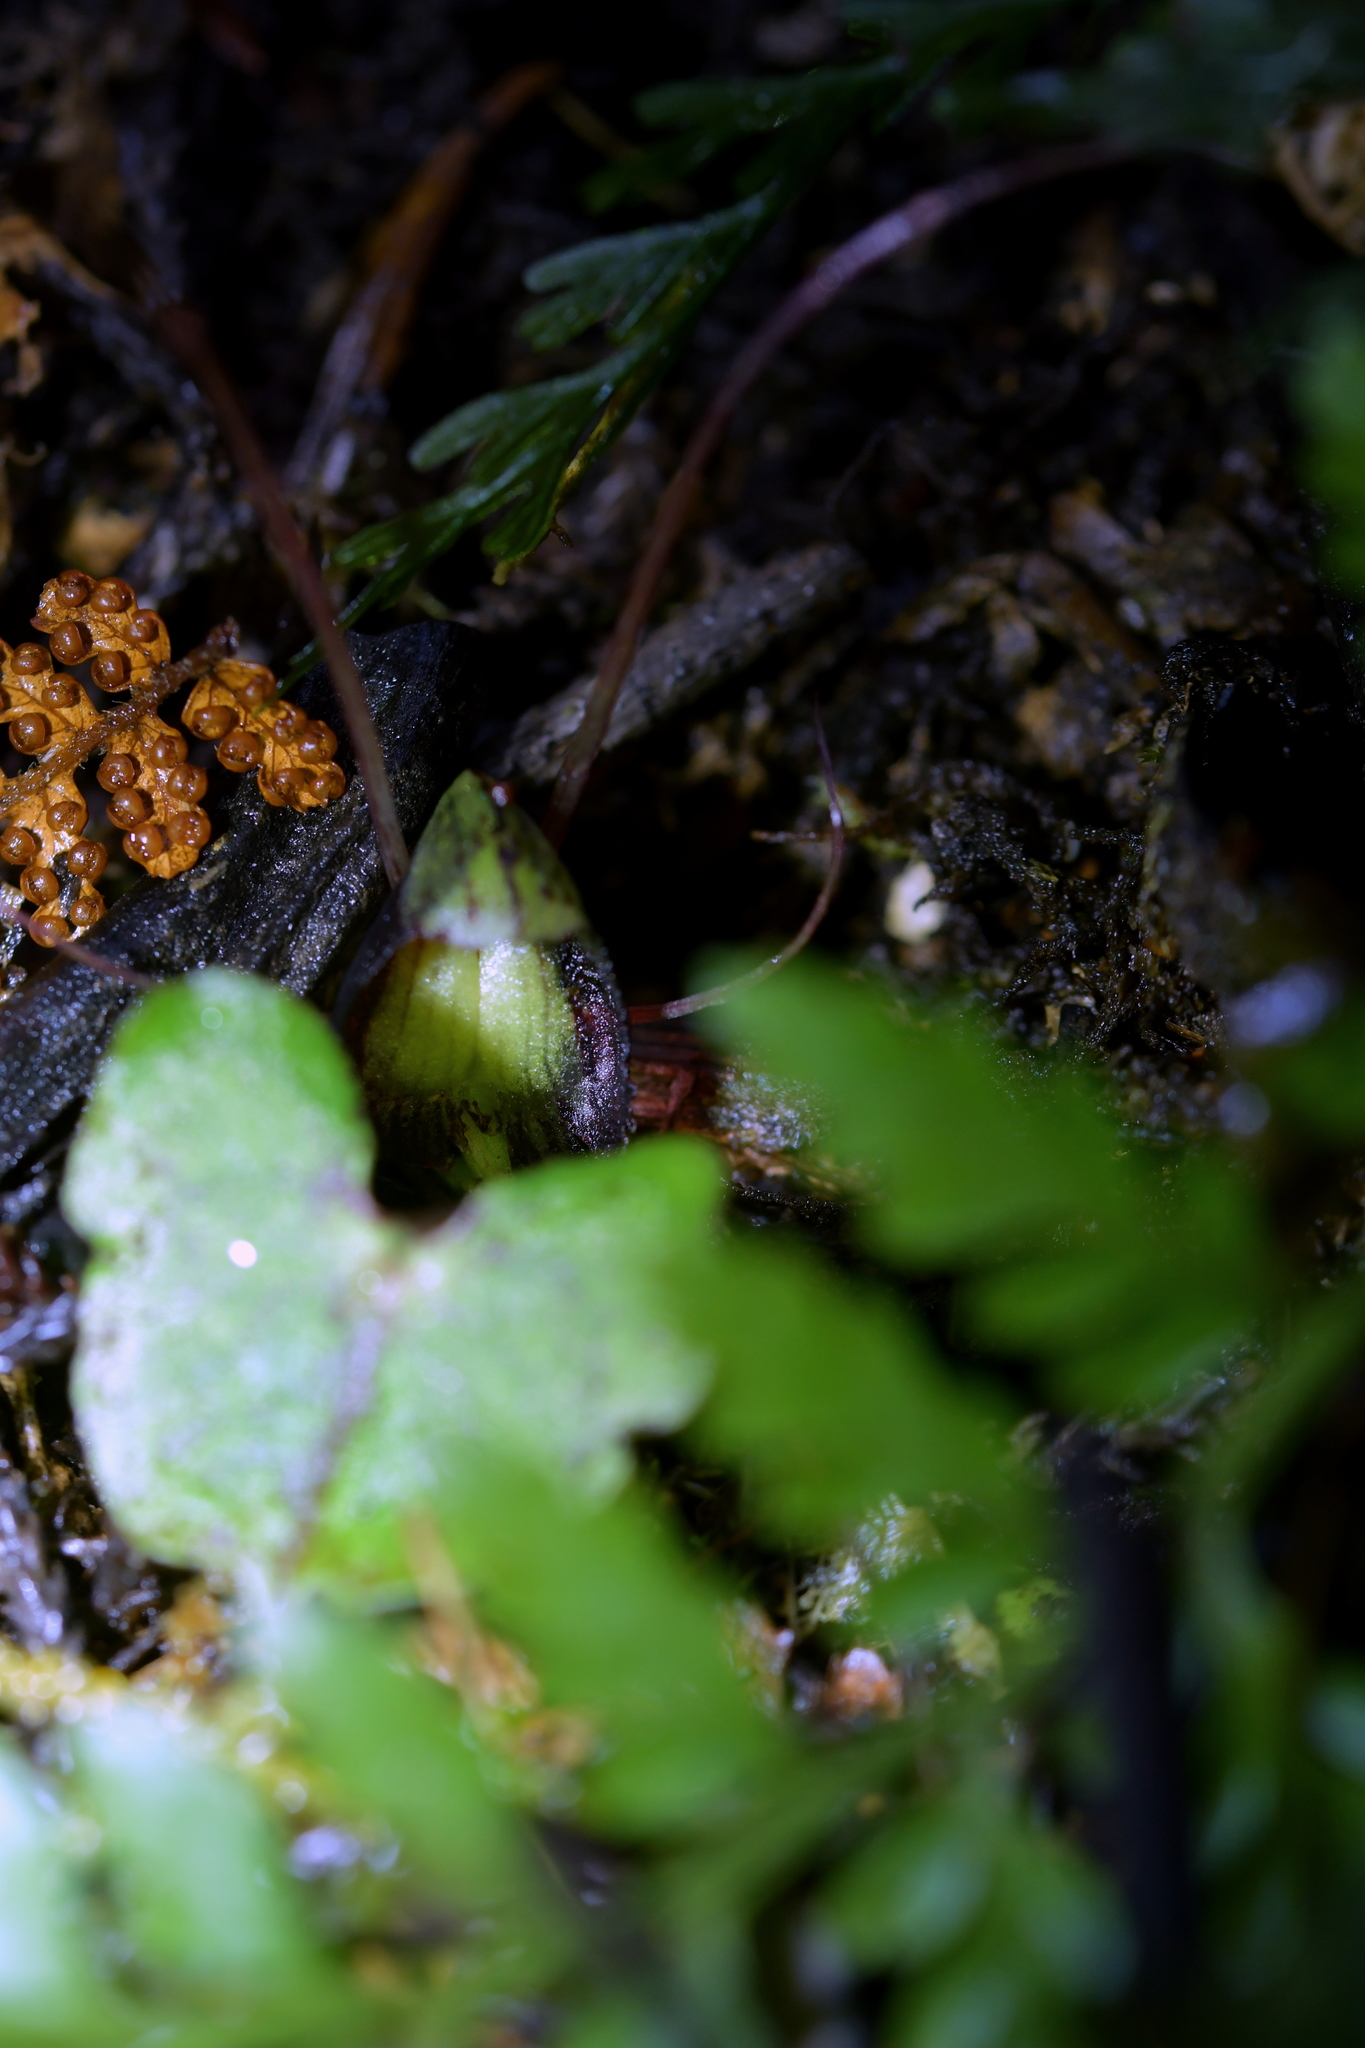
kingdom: Plantae
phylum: Tracheophyta
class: Liliopsida
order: Asparagales
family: Orchidaceae
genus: Corybas
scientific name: Corybas sanctigeorgianus
